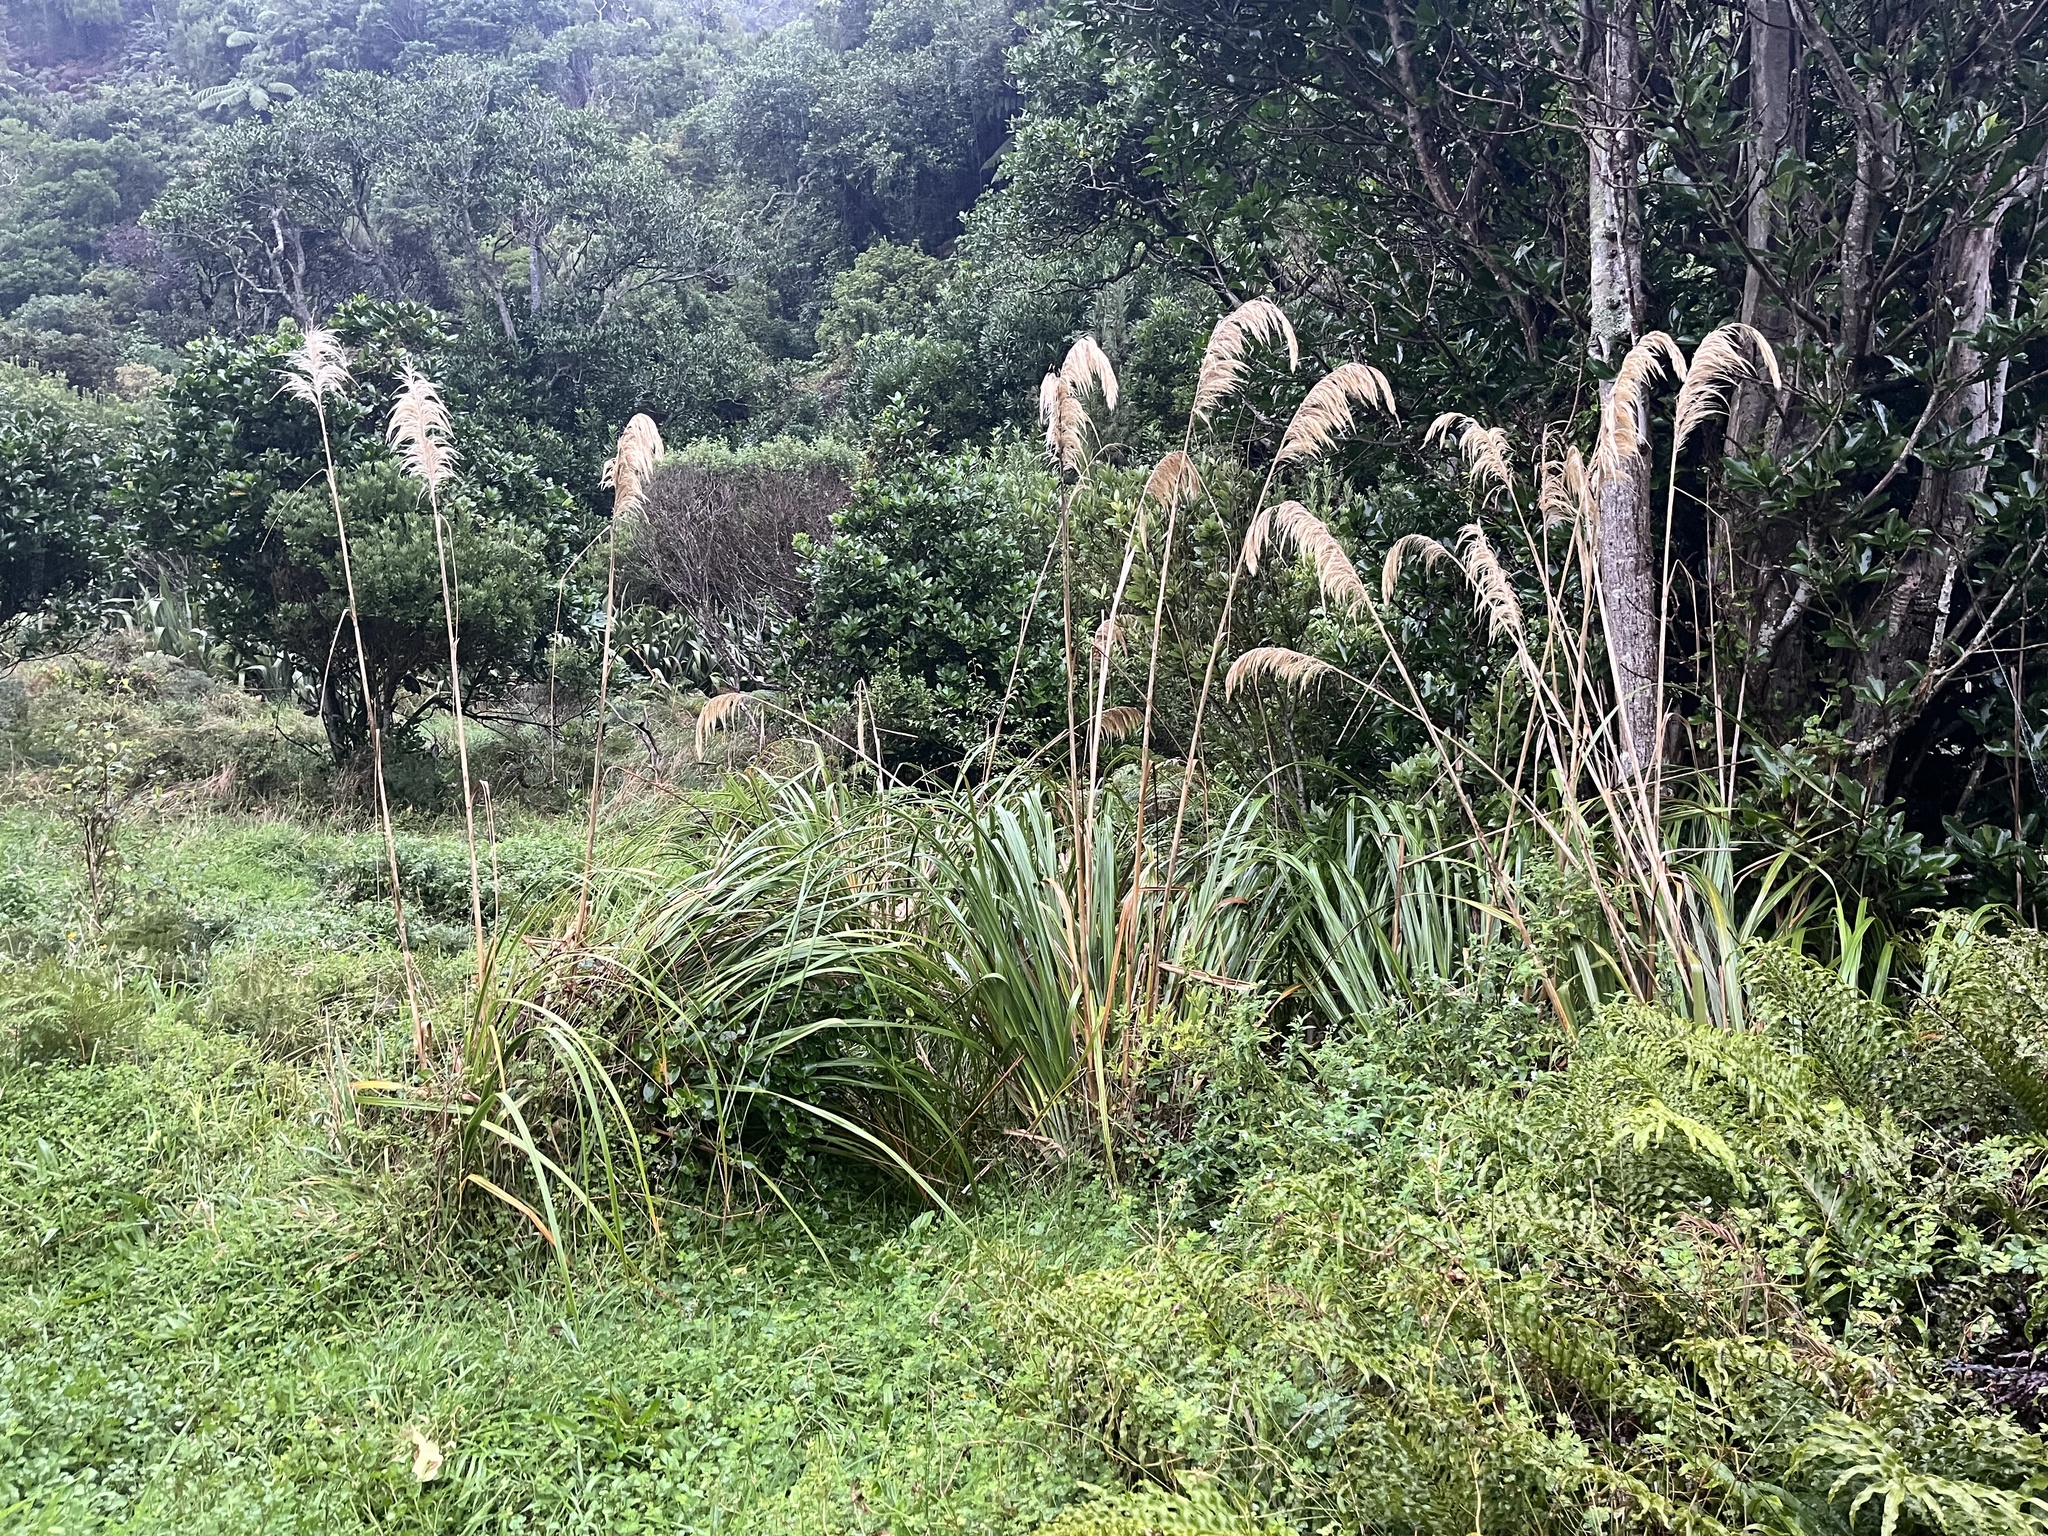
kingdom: Plantae
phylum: Tracheophyta
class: Liliopsida
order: Poales
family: Poaceae
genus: Austroderia
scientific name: Austroderia turbaria
